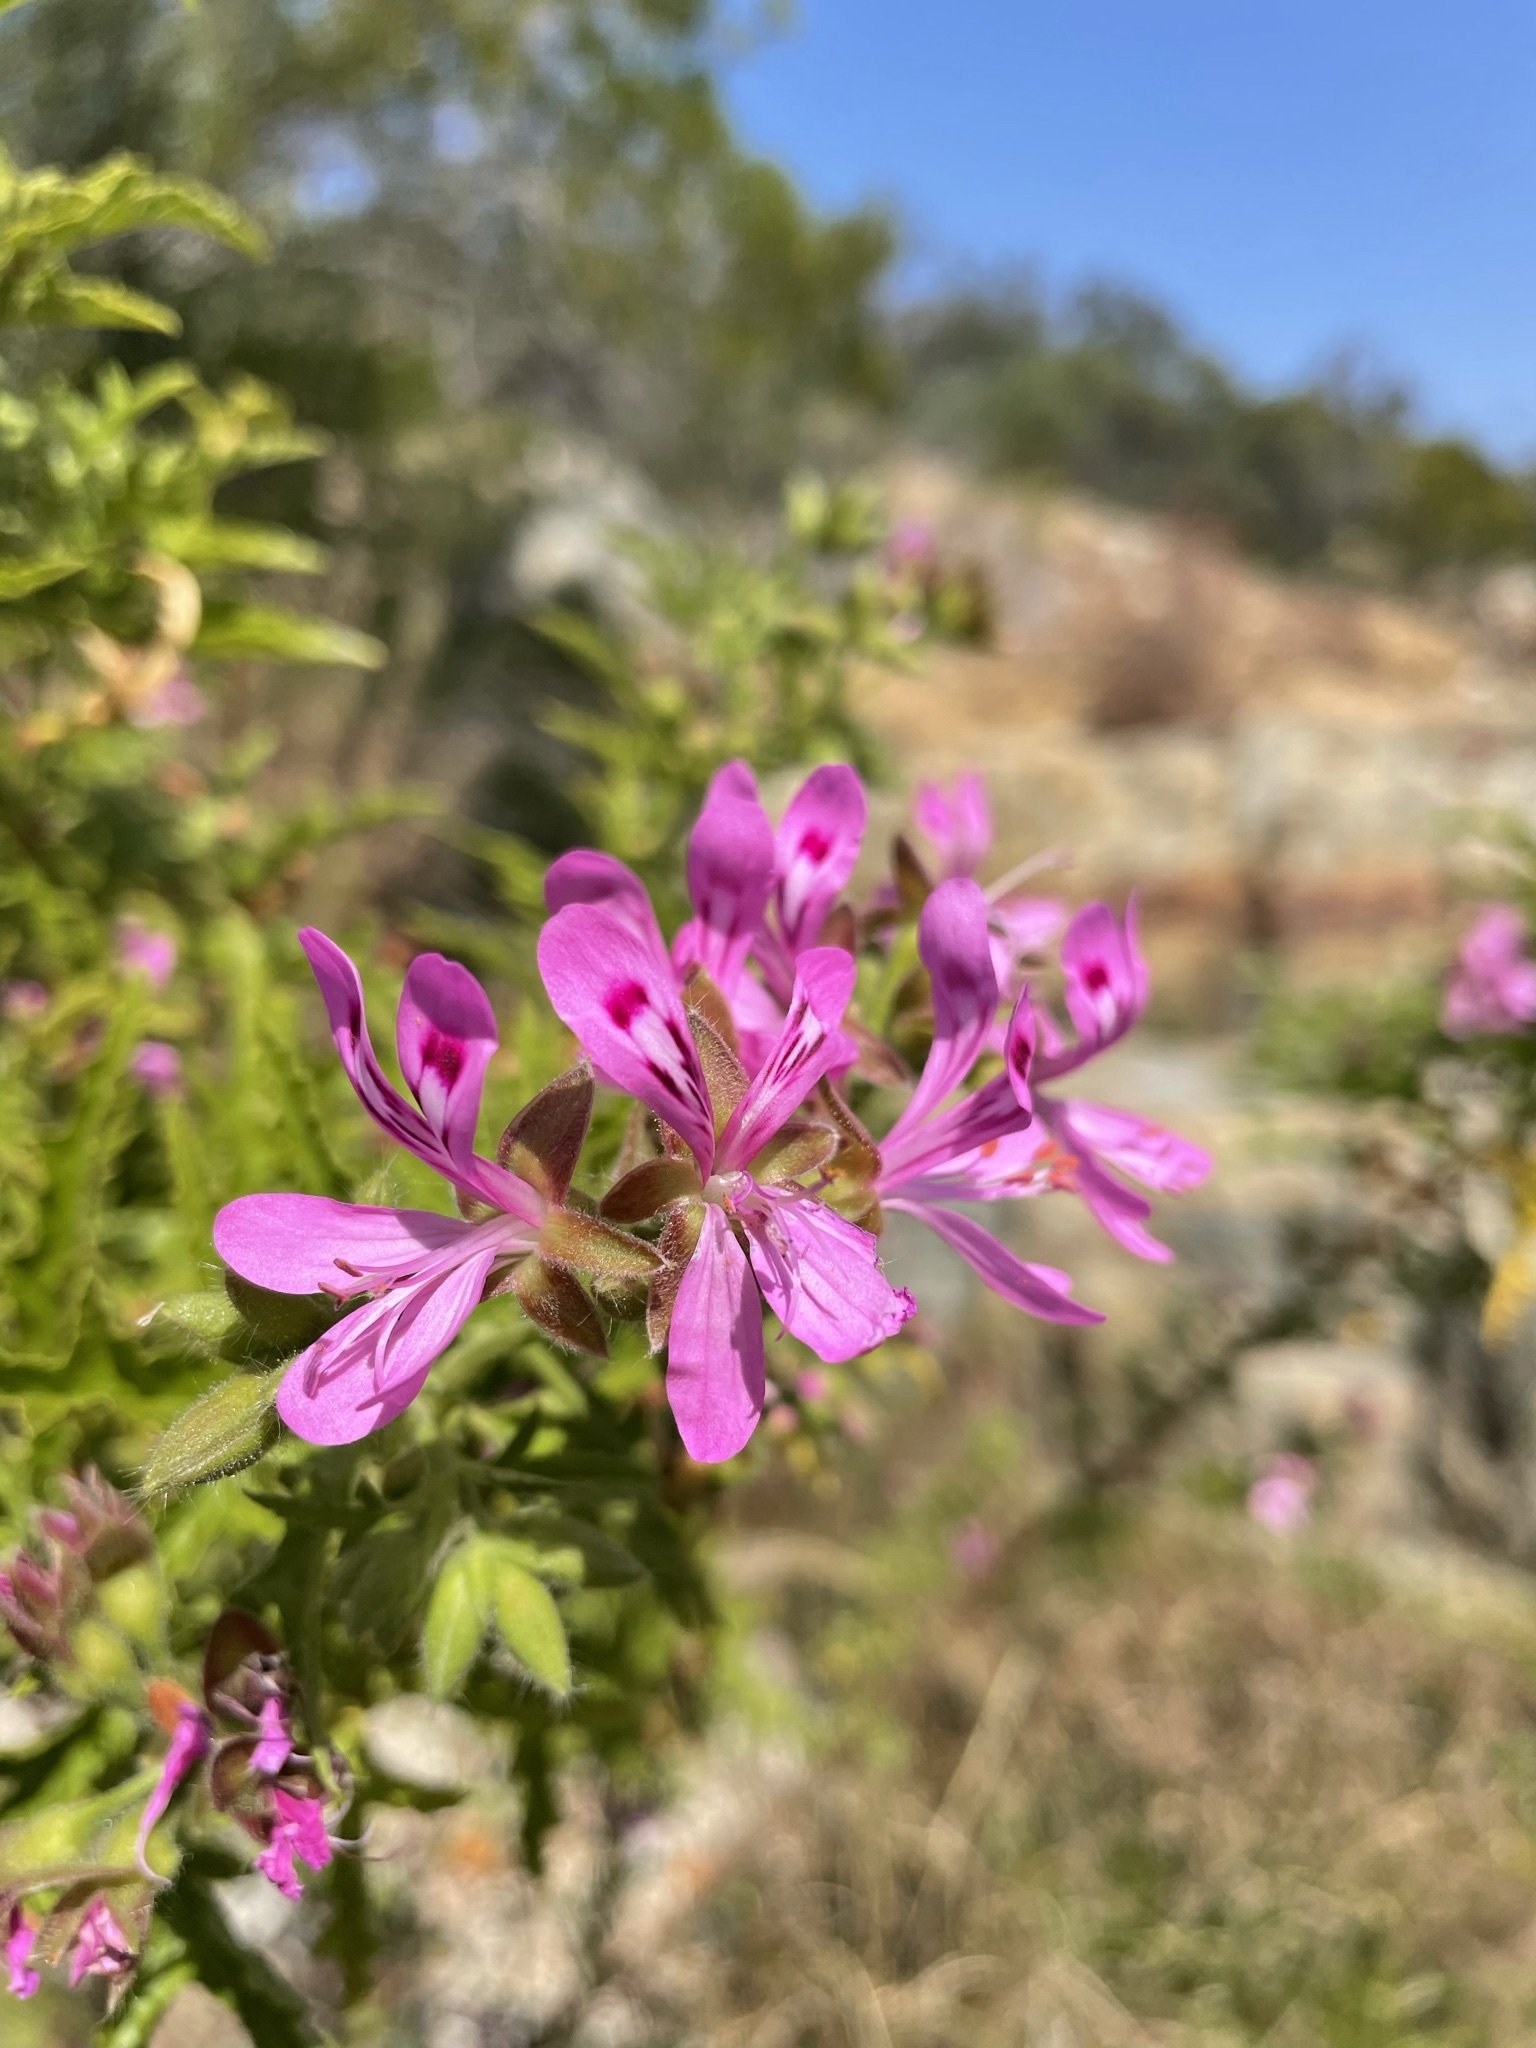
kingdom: Plantae
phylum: Tracheophyta
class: Magnoliopsida
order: Geraniales
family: Geraniaceae
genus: Pelargonium
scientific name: Pelargonium glutinosum
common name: Pheasant-foot geranium
